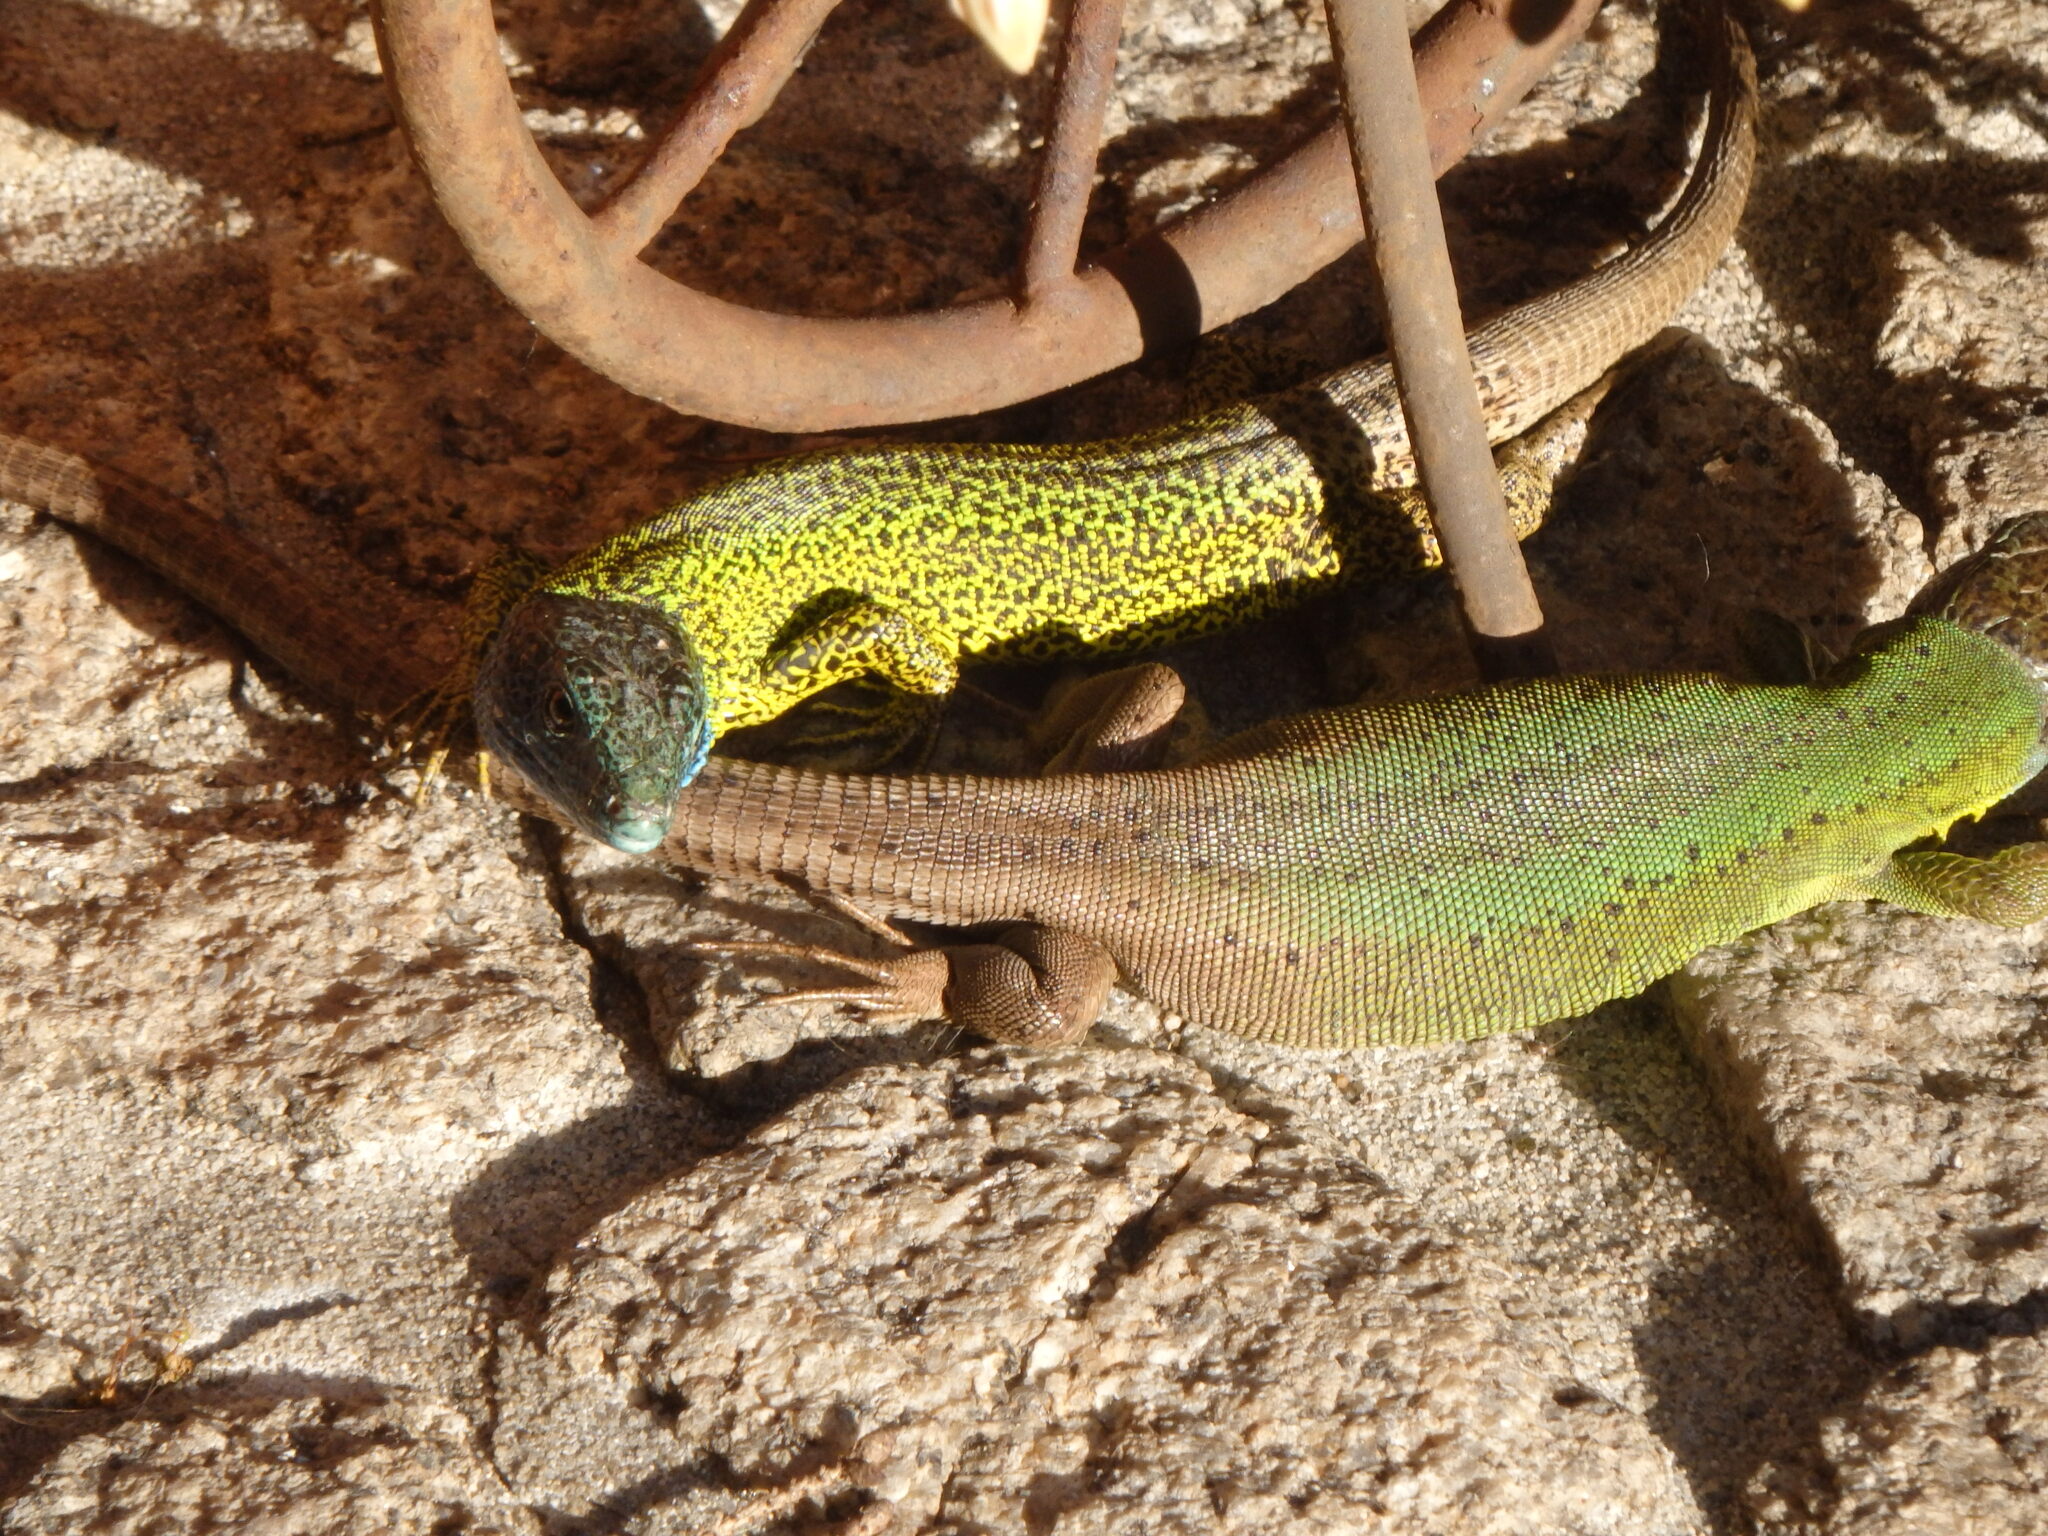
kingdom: Animalia
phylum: Chordata
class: Squamata
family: Lacertidae
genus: Lacerta
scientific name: Lacerta schreiberi
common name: Iberian emerald lizard
